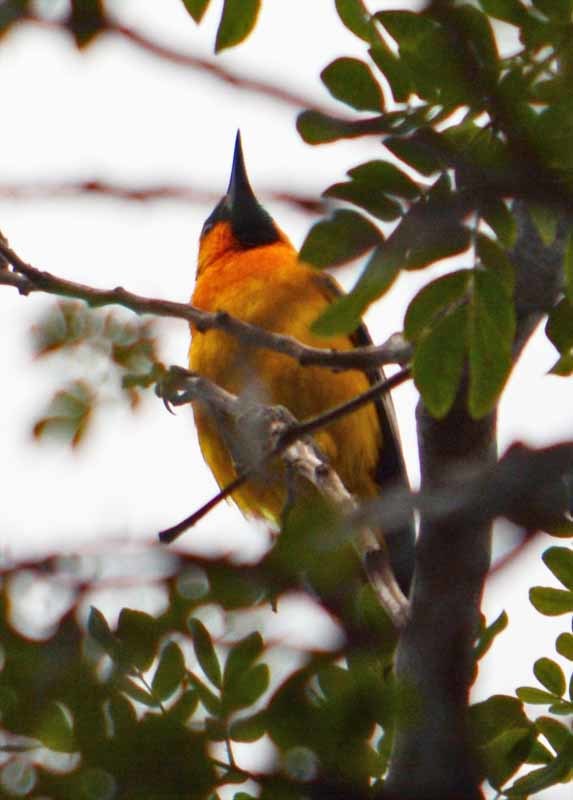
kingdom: Animalia
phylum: Chordata
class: Aves
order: Passeriformes
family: Icteridae
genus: Icterus
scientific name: Icterus pustulatus
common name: Streak-backed oriole
